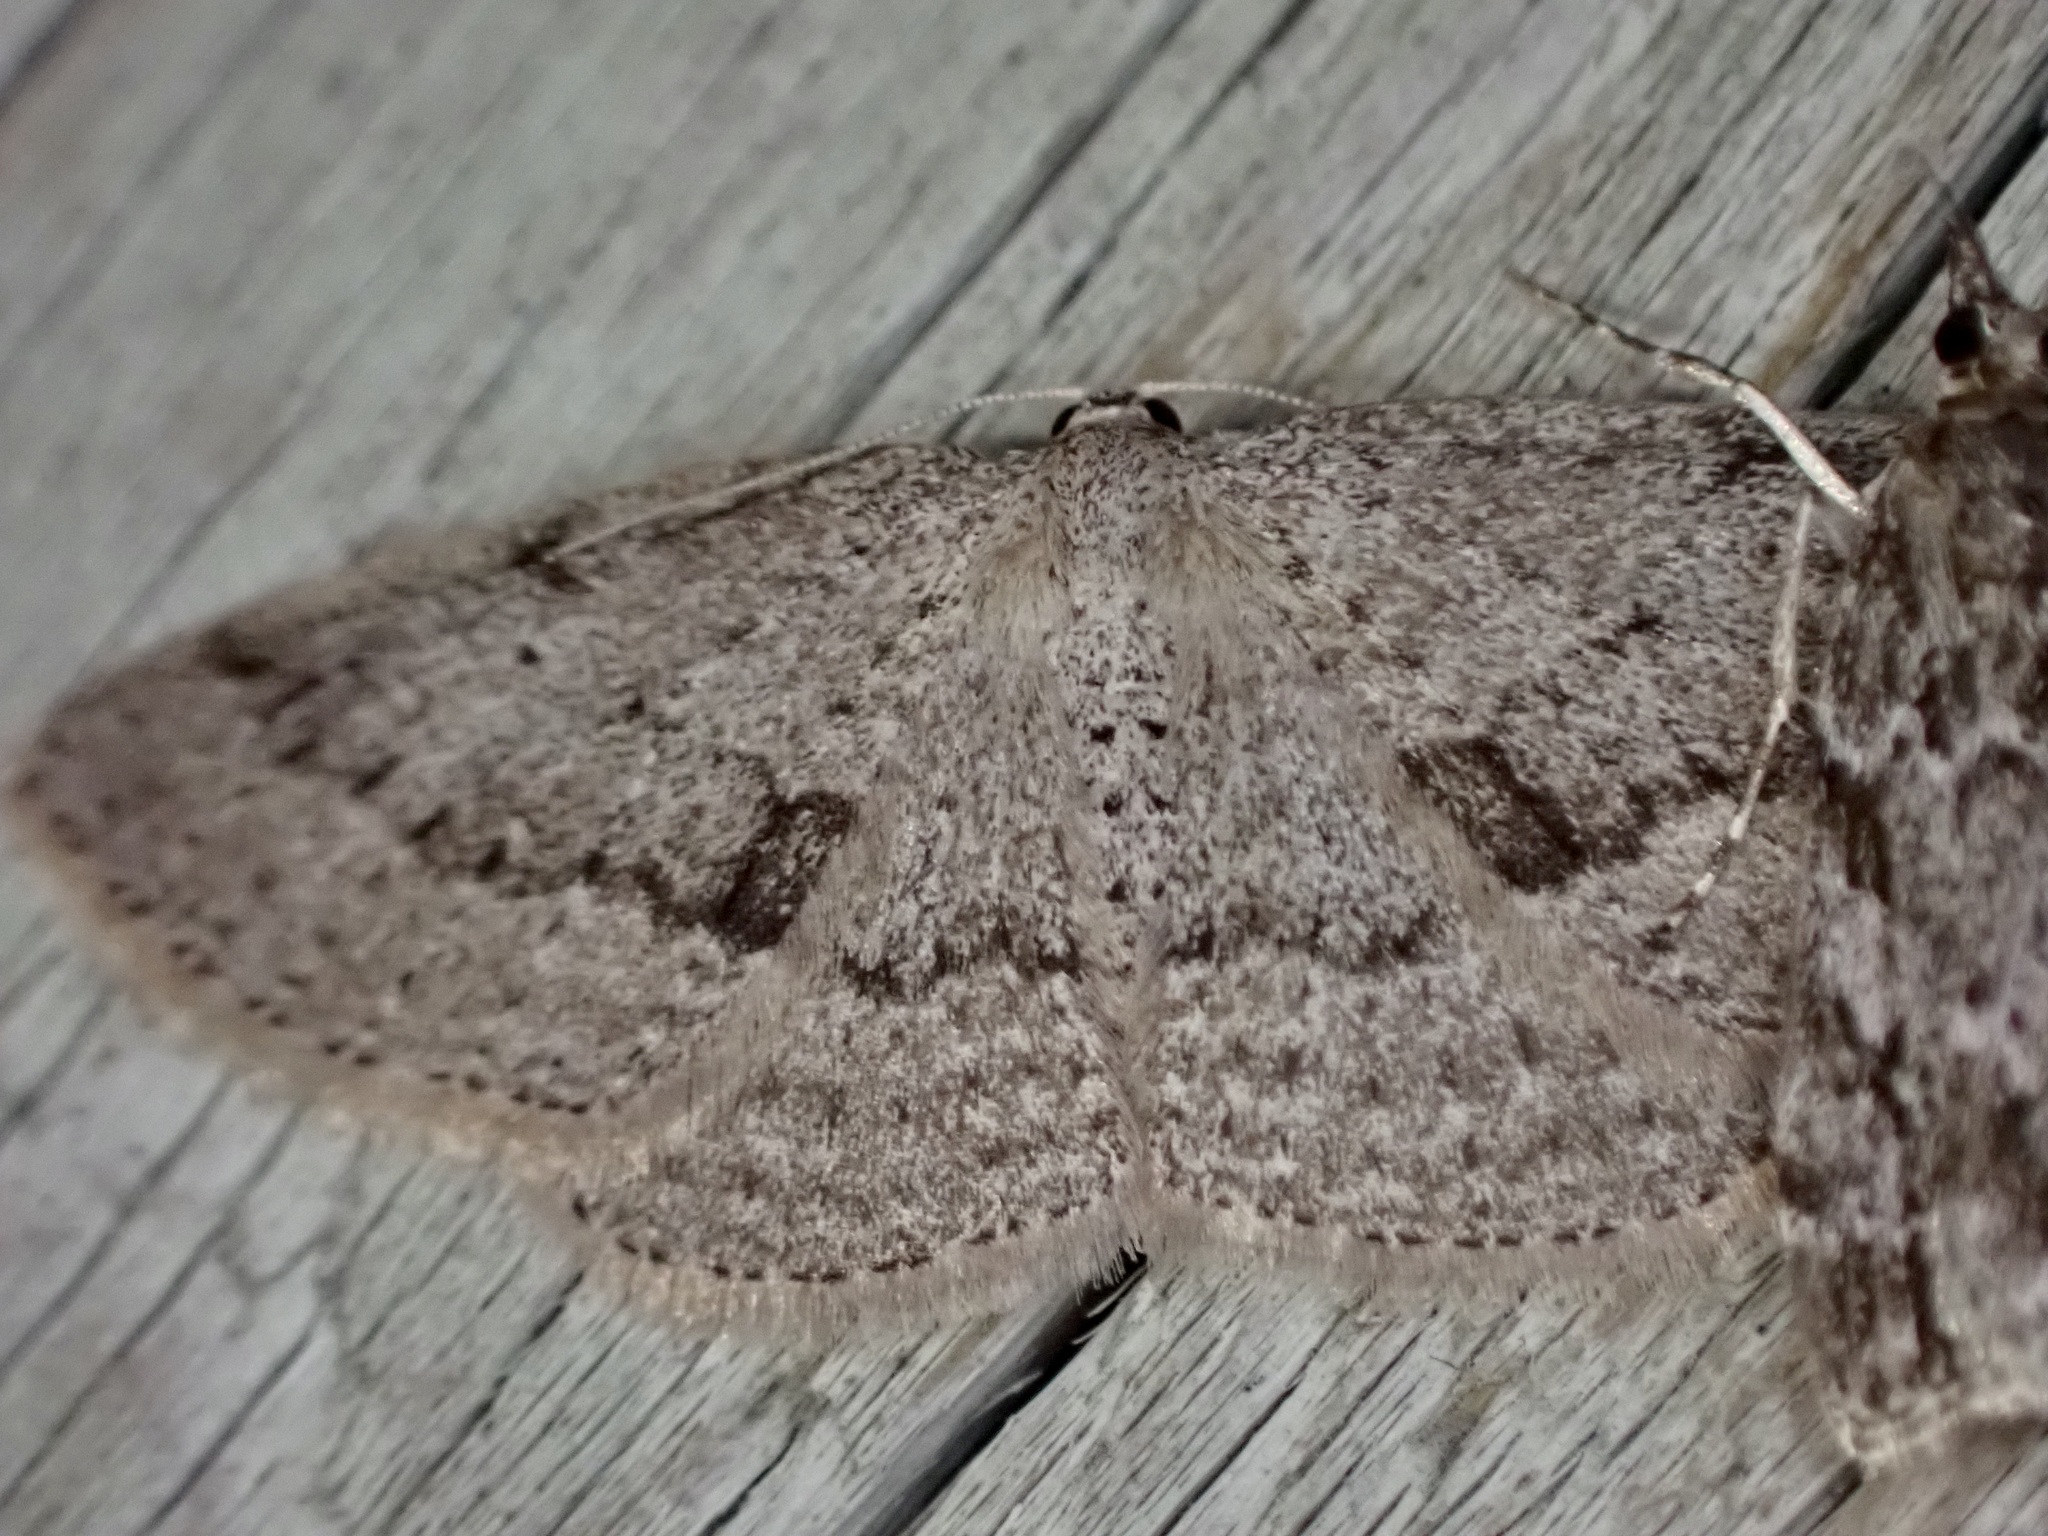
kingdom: Animalia
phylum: Arthropoda
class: Insecta
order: Lepidoptera
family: Geometridae
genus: Poecilasthena
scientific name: Poecilasthena schistaria
